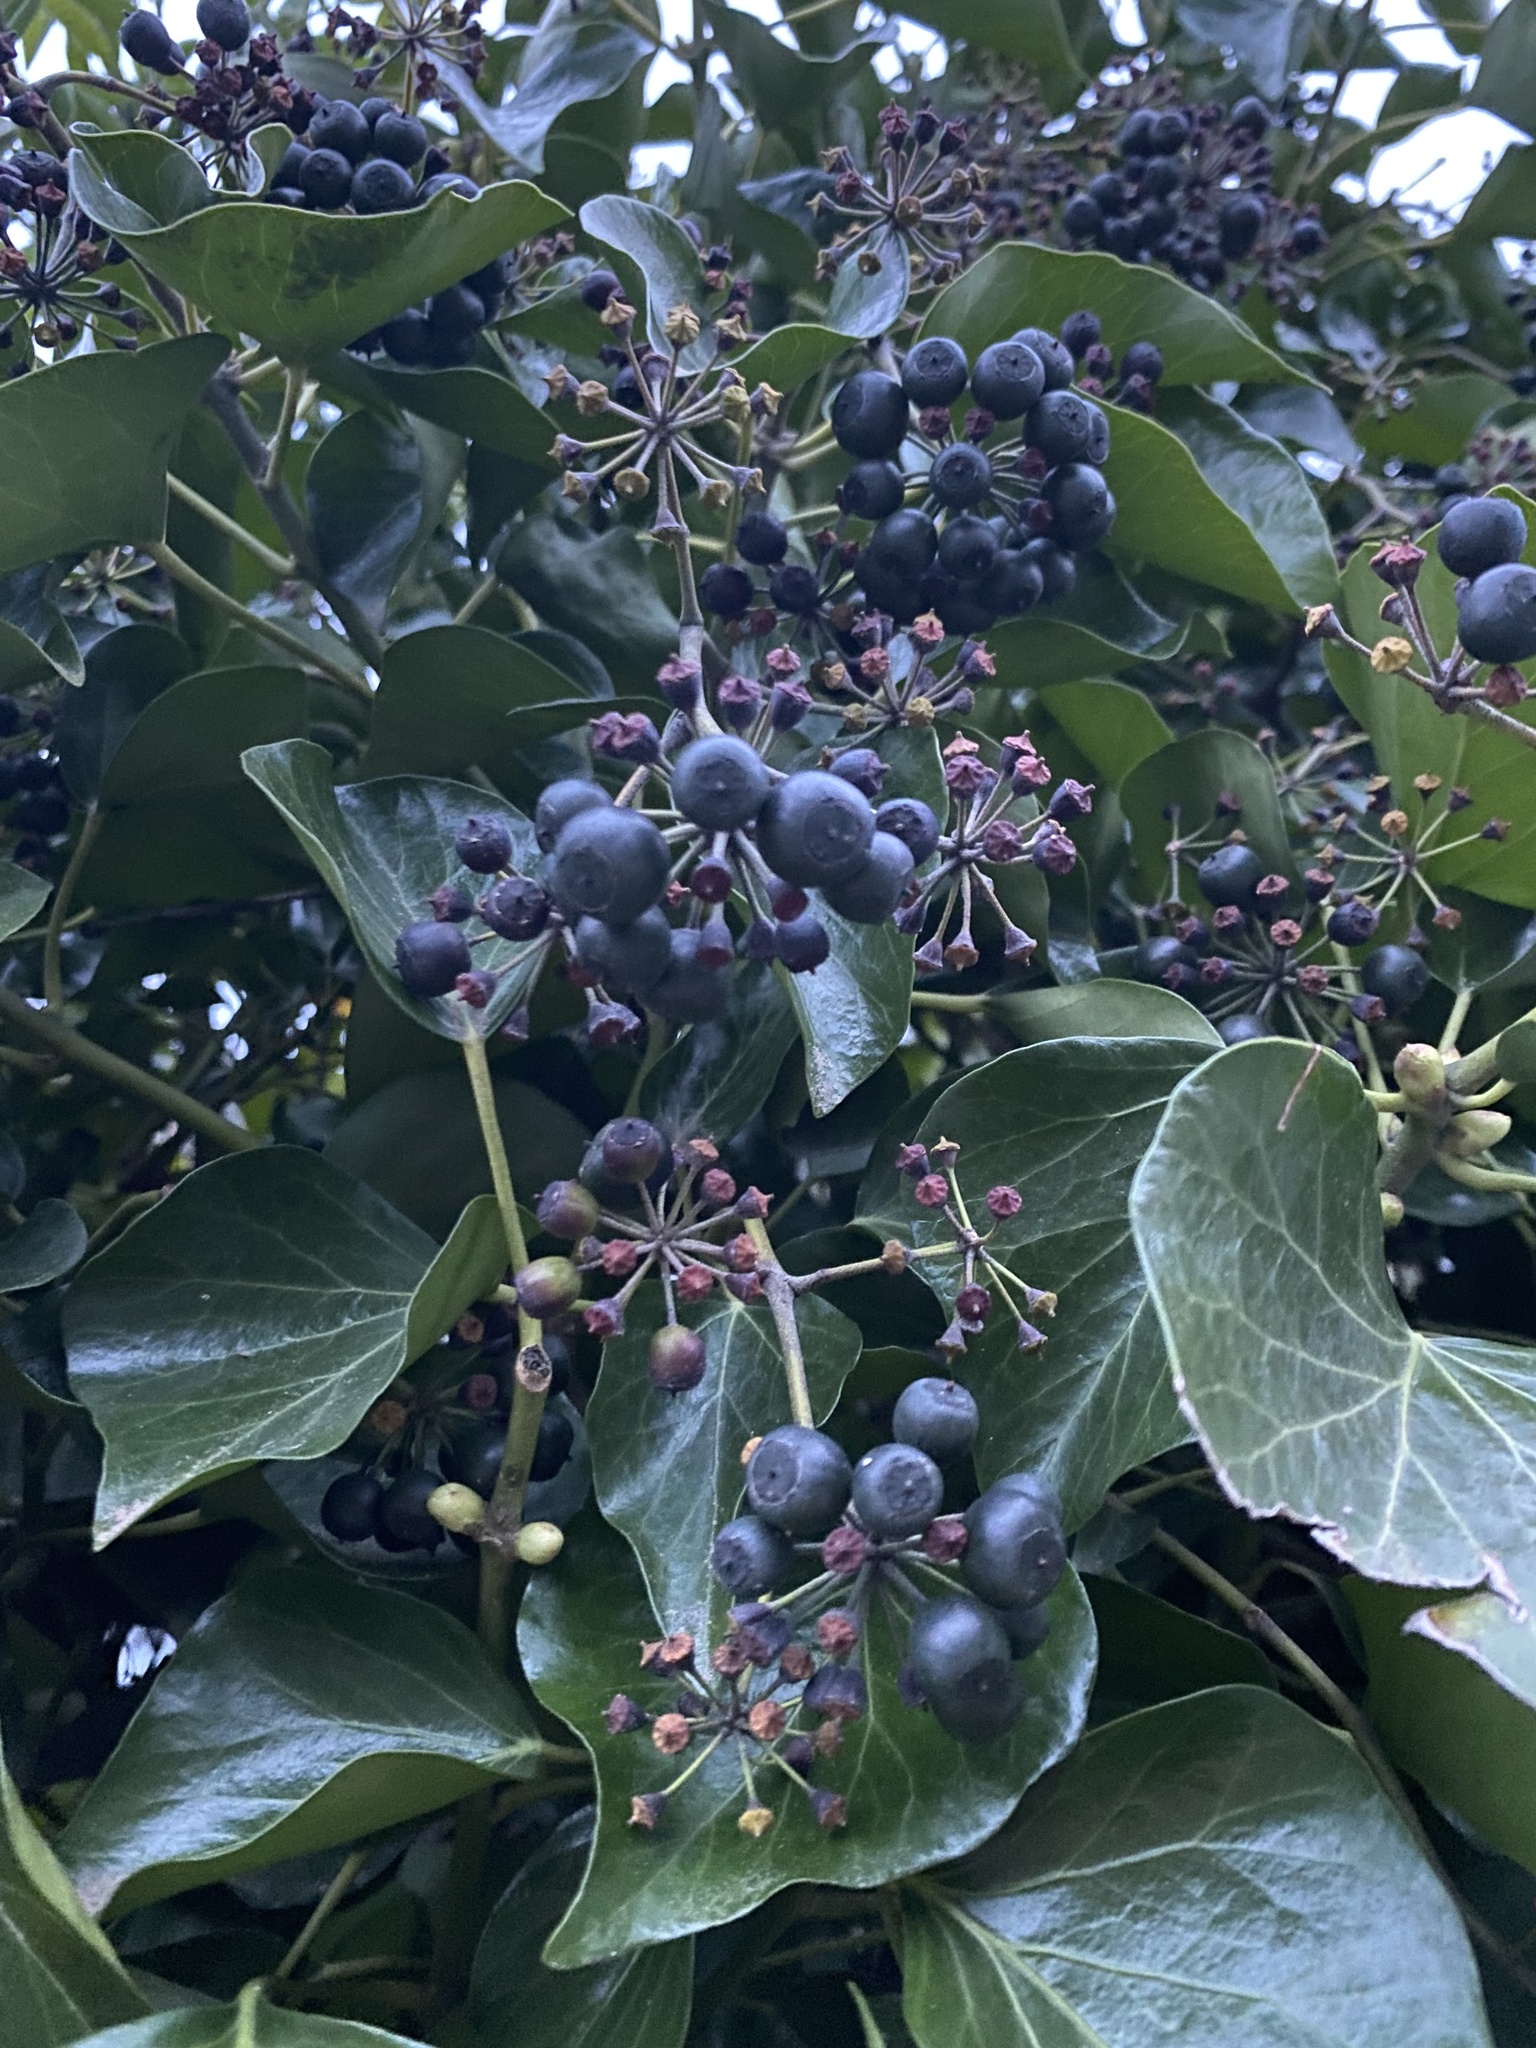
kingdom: Plantae
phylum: Tracheophyta
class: Magnoliopsida
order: Apiales
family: Araliaceae
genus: Hedera
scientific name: Hedera helix
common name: Ivy
